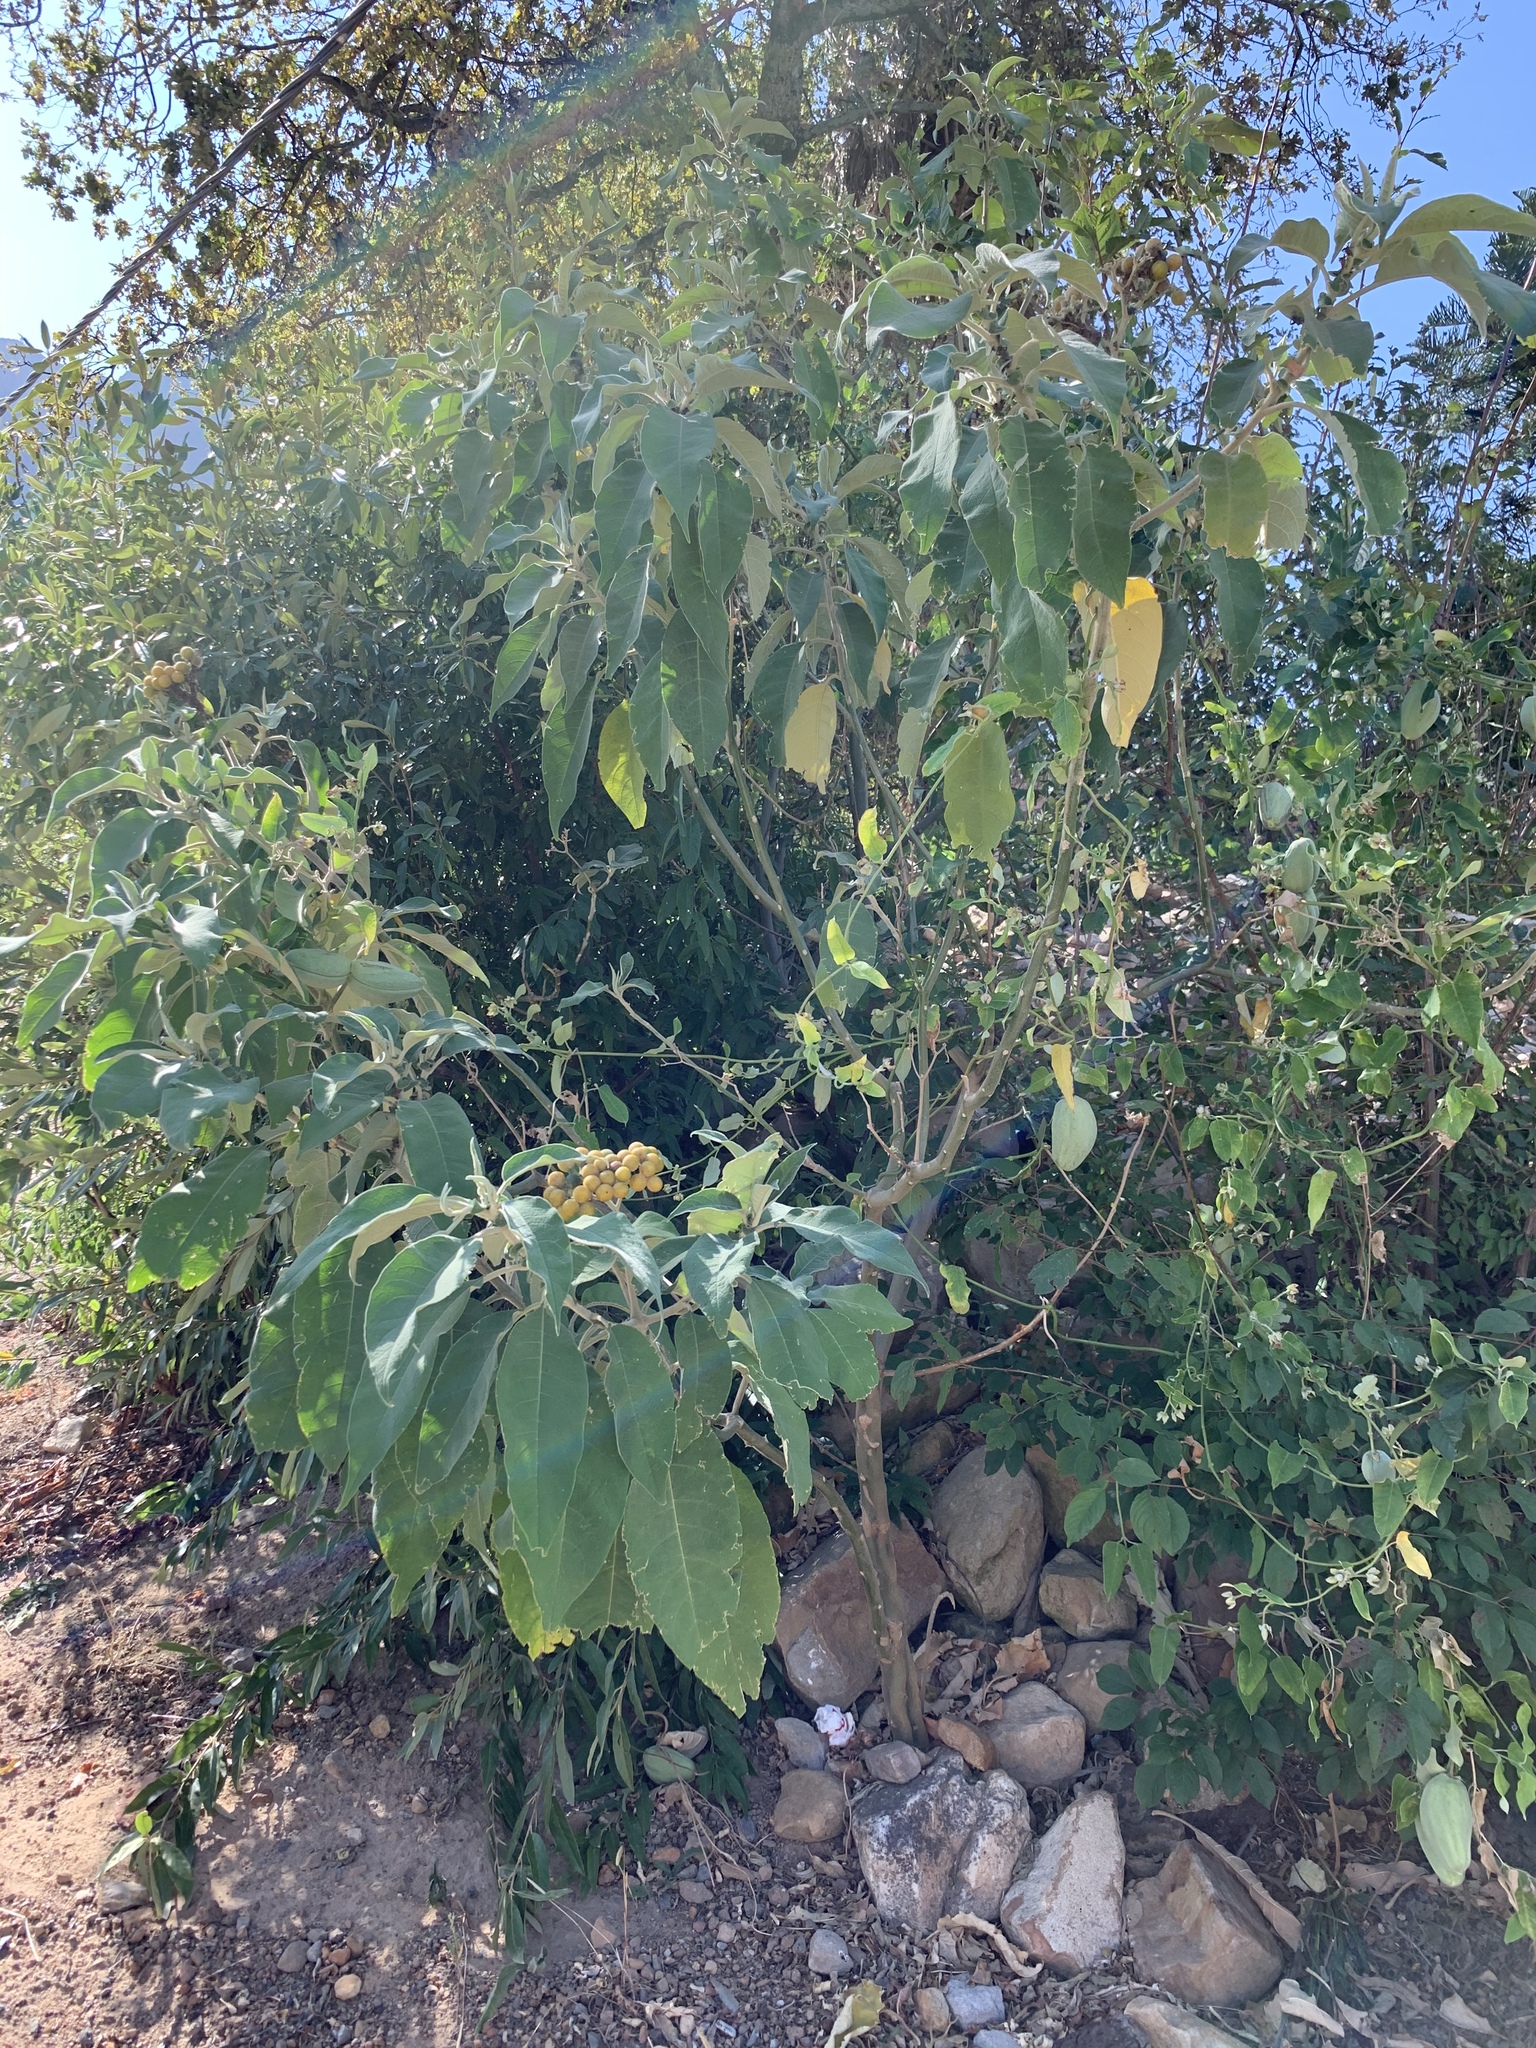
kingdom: Plantae
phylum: Tracheophyta
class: Magnoliopsida
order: Solanales
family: Solanaceae
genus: Solanum
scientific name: Solanum mauritianum
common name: Earleaf nightshade
